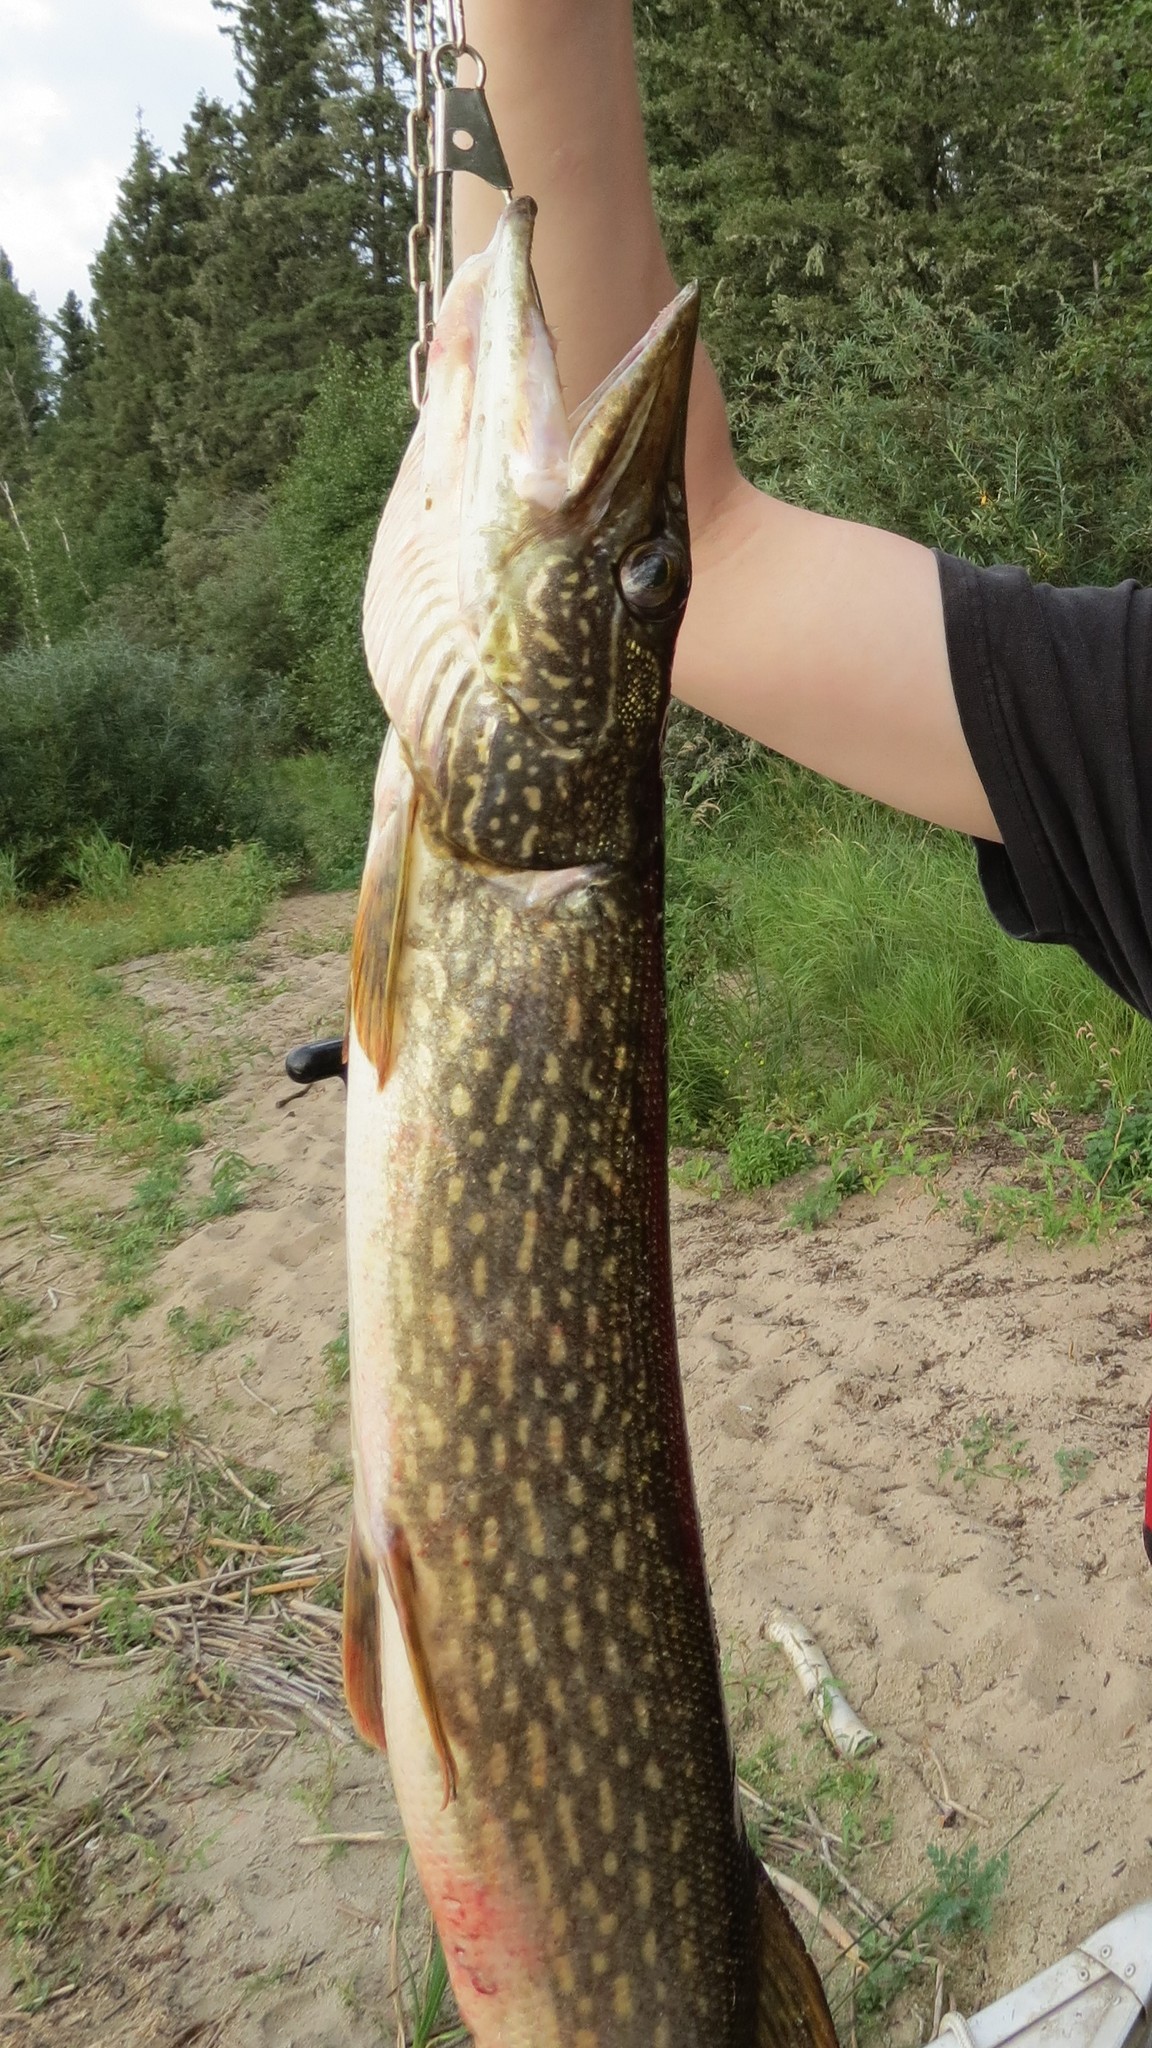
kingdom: Animalia
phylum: Chordata
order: Esociformes
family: Esocidae
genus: Esox
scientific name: Esox lucius
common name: Northern pike
